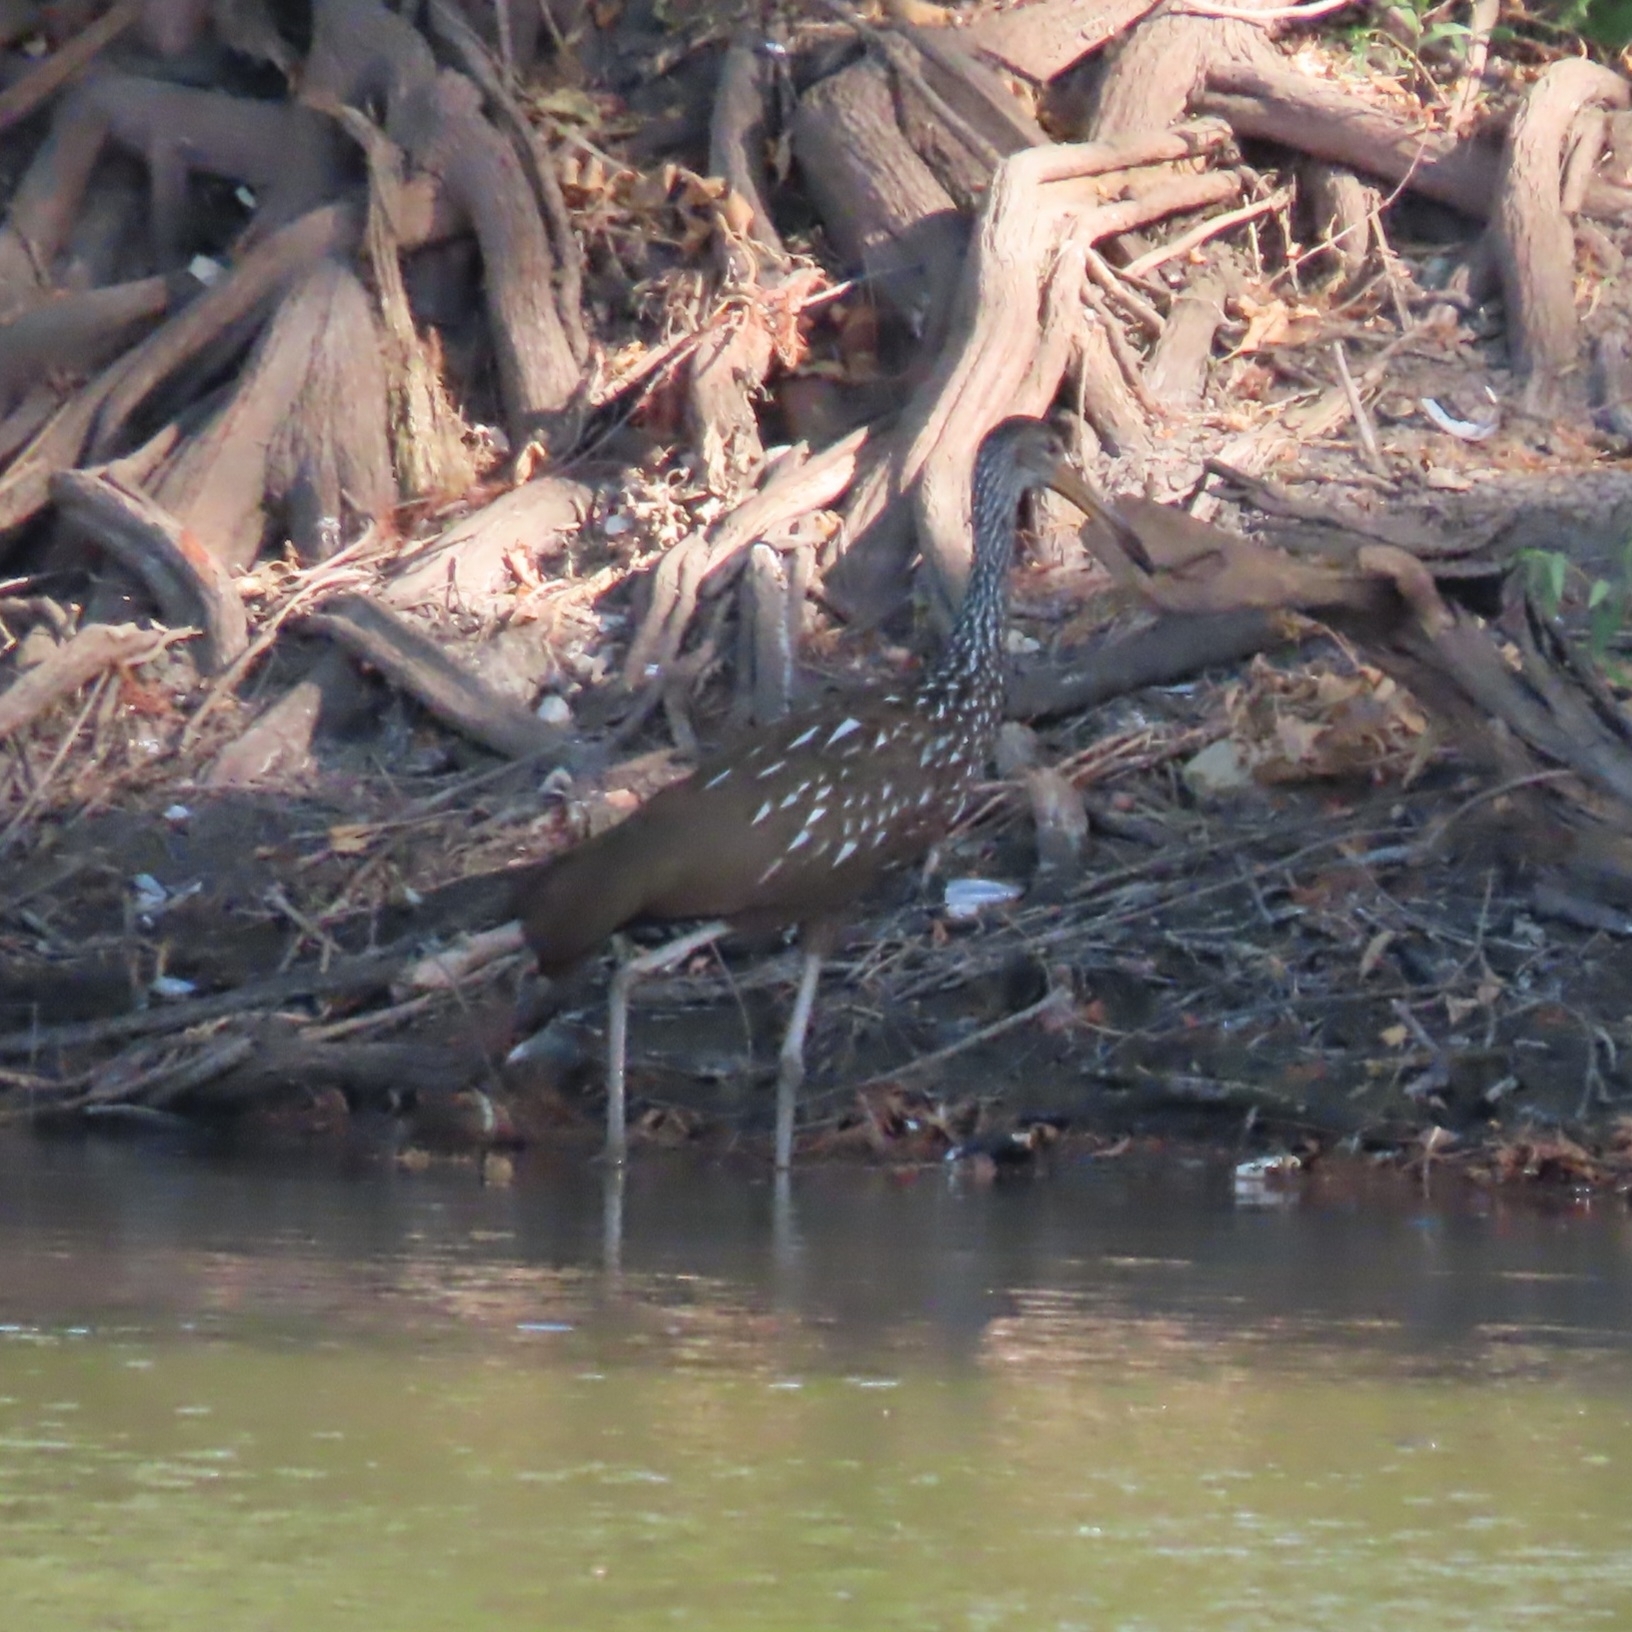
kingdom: Animalia
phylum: Chordata
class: Aves
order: Gruiformes
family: Aramidae
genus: Aramus
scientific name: Aramus guarauna
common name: Limpkin
